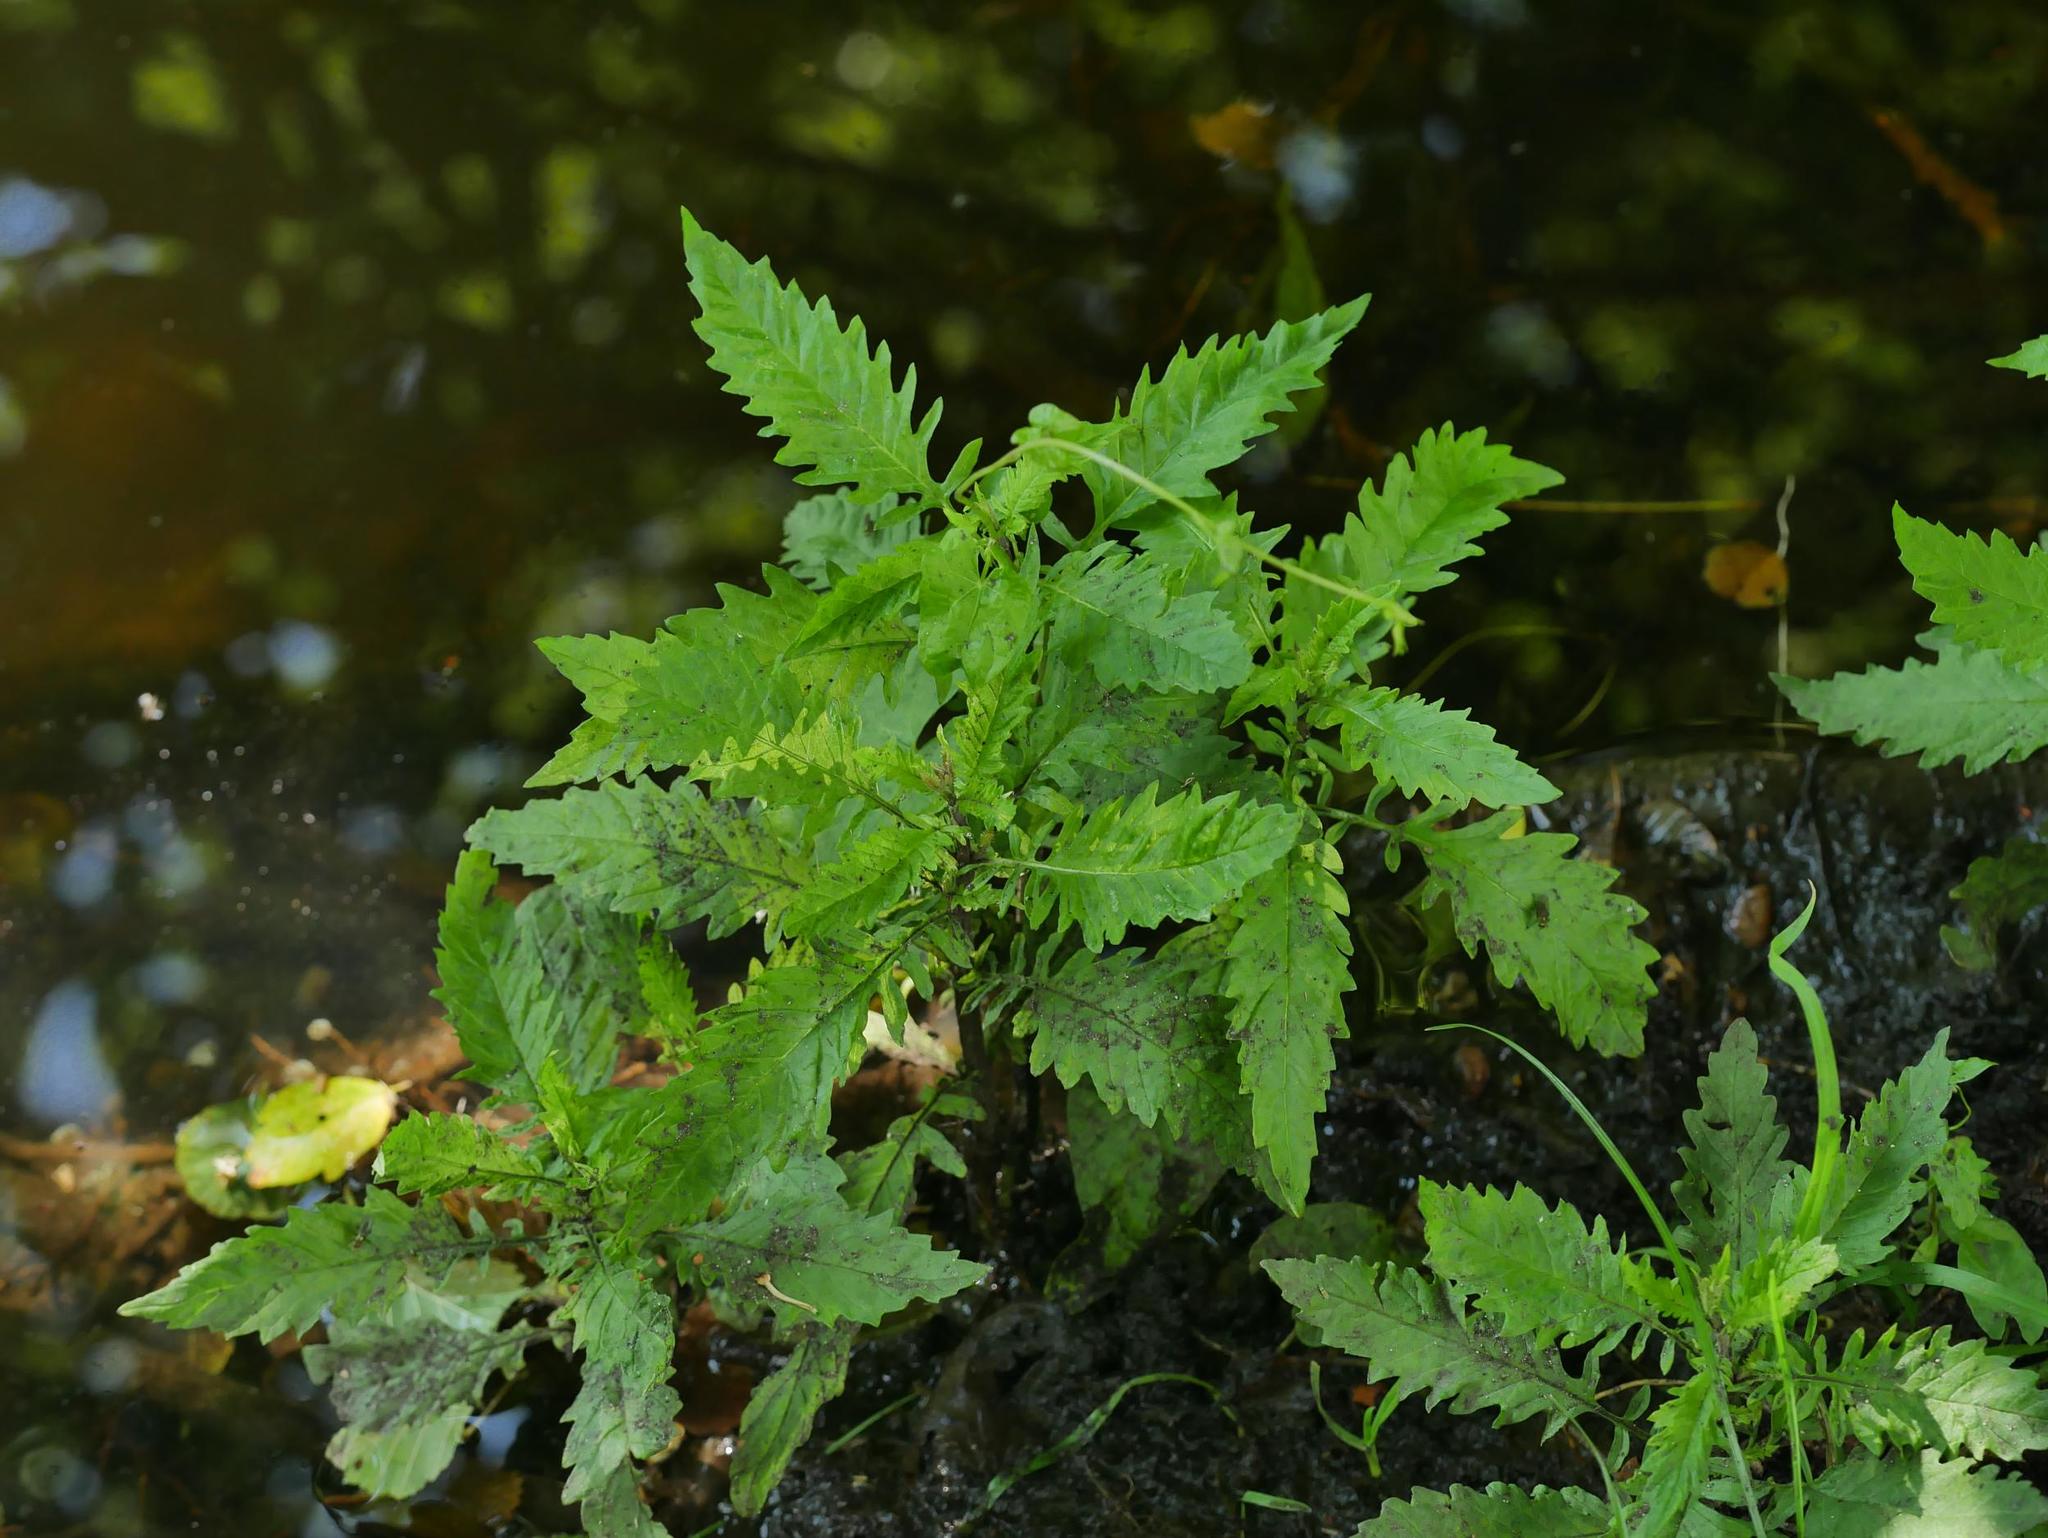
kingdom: Plantae
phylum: Tracheophyta
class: Magnoliopsida
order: Lamiales
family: Lamiaceae
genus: Lycopus
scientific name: Lycopus europaeus
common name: European bugleweed
